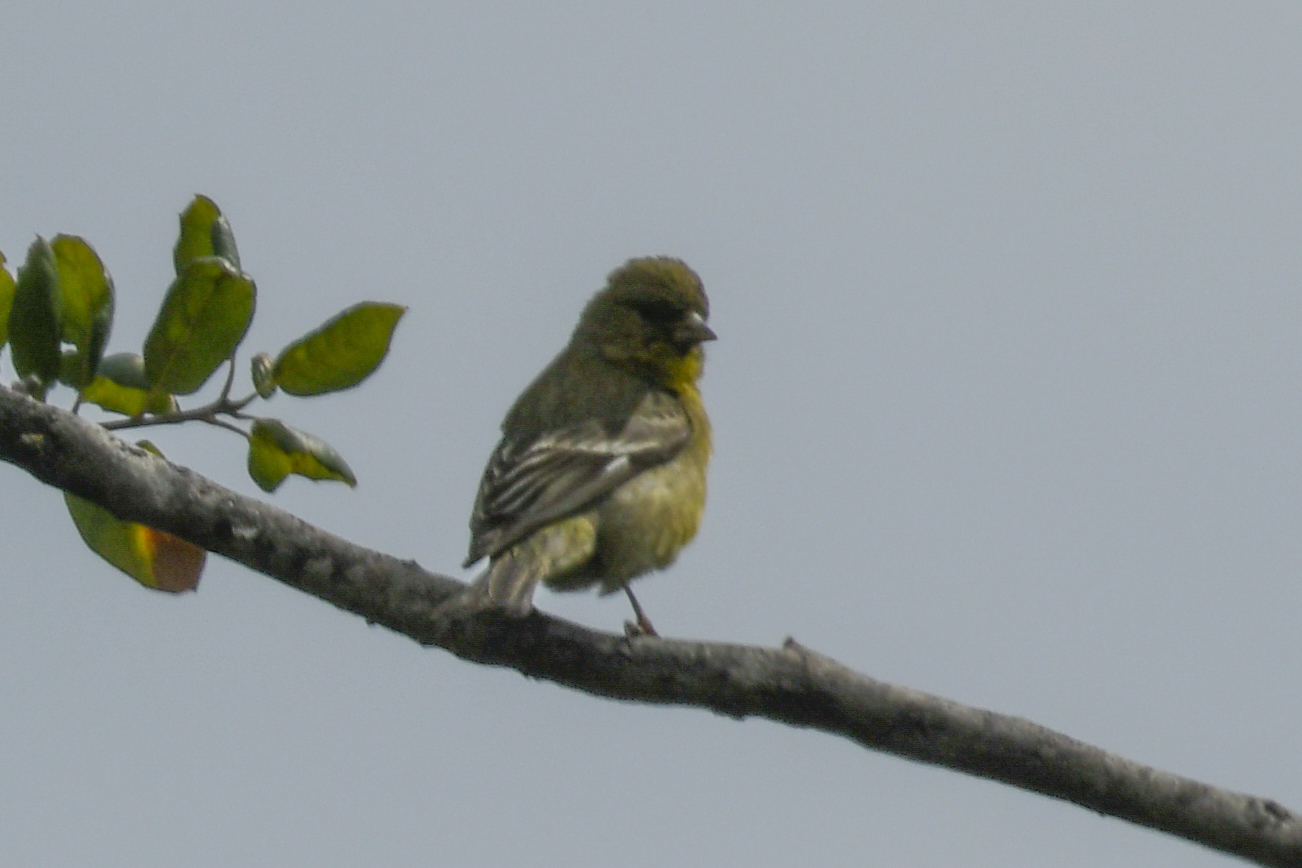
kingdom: Animalia
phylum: Chordata
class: Aves
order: Passeriformes
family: Fringillidae
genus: Spinus
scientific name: Spinus psaltria
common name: Lesser goldfinch
